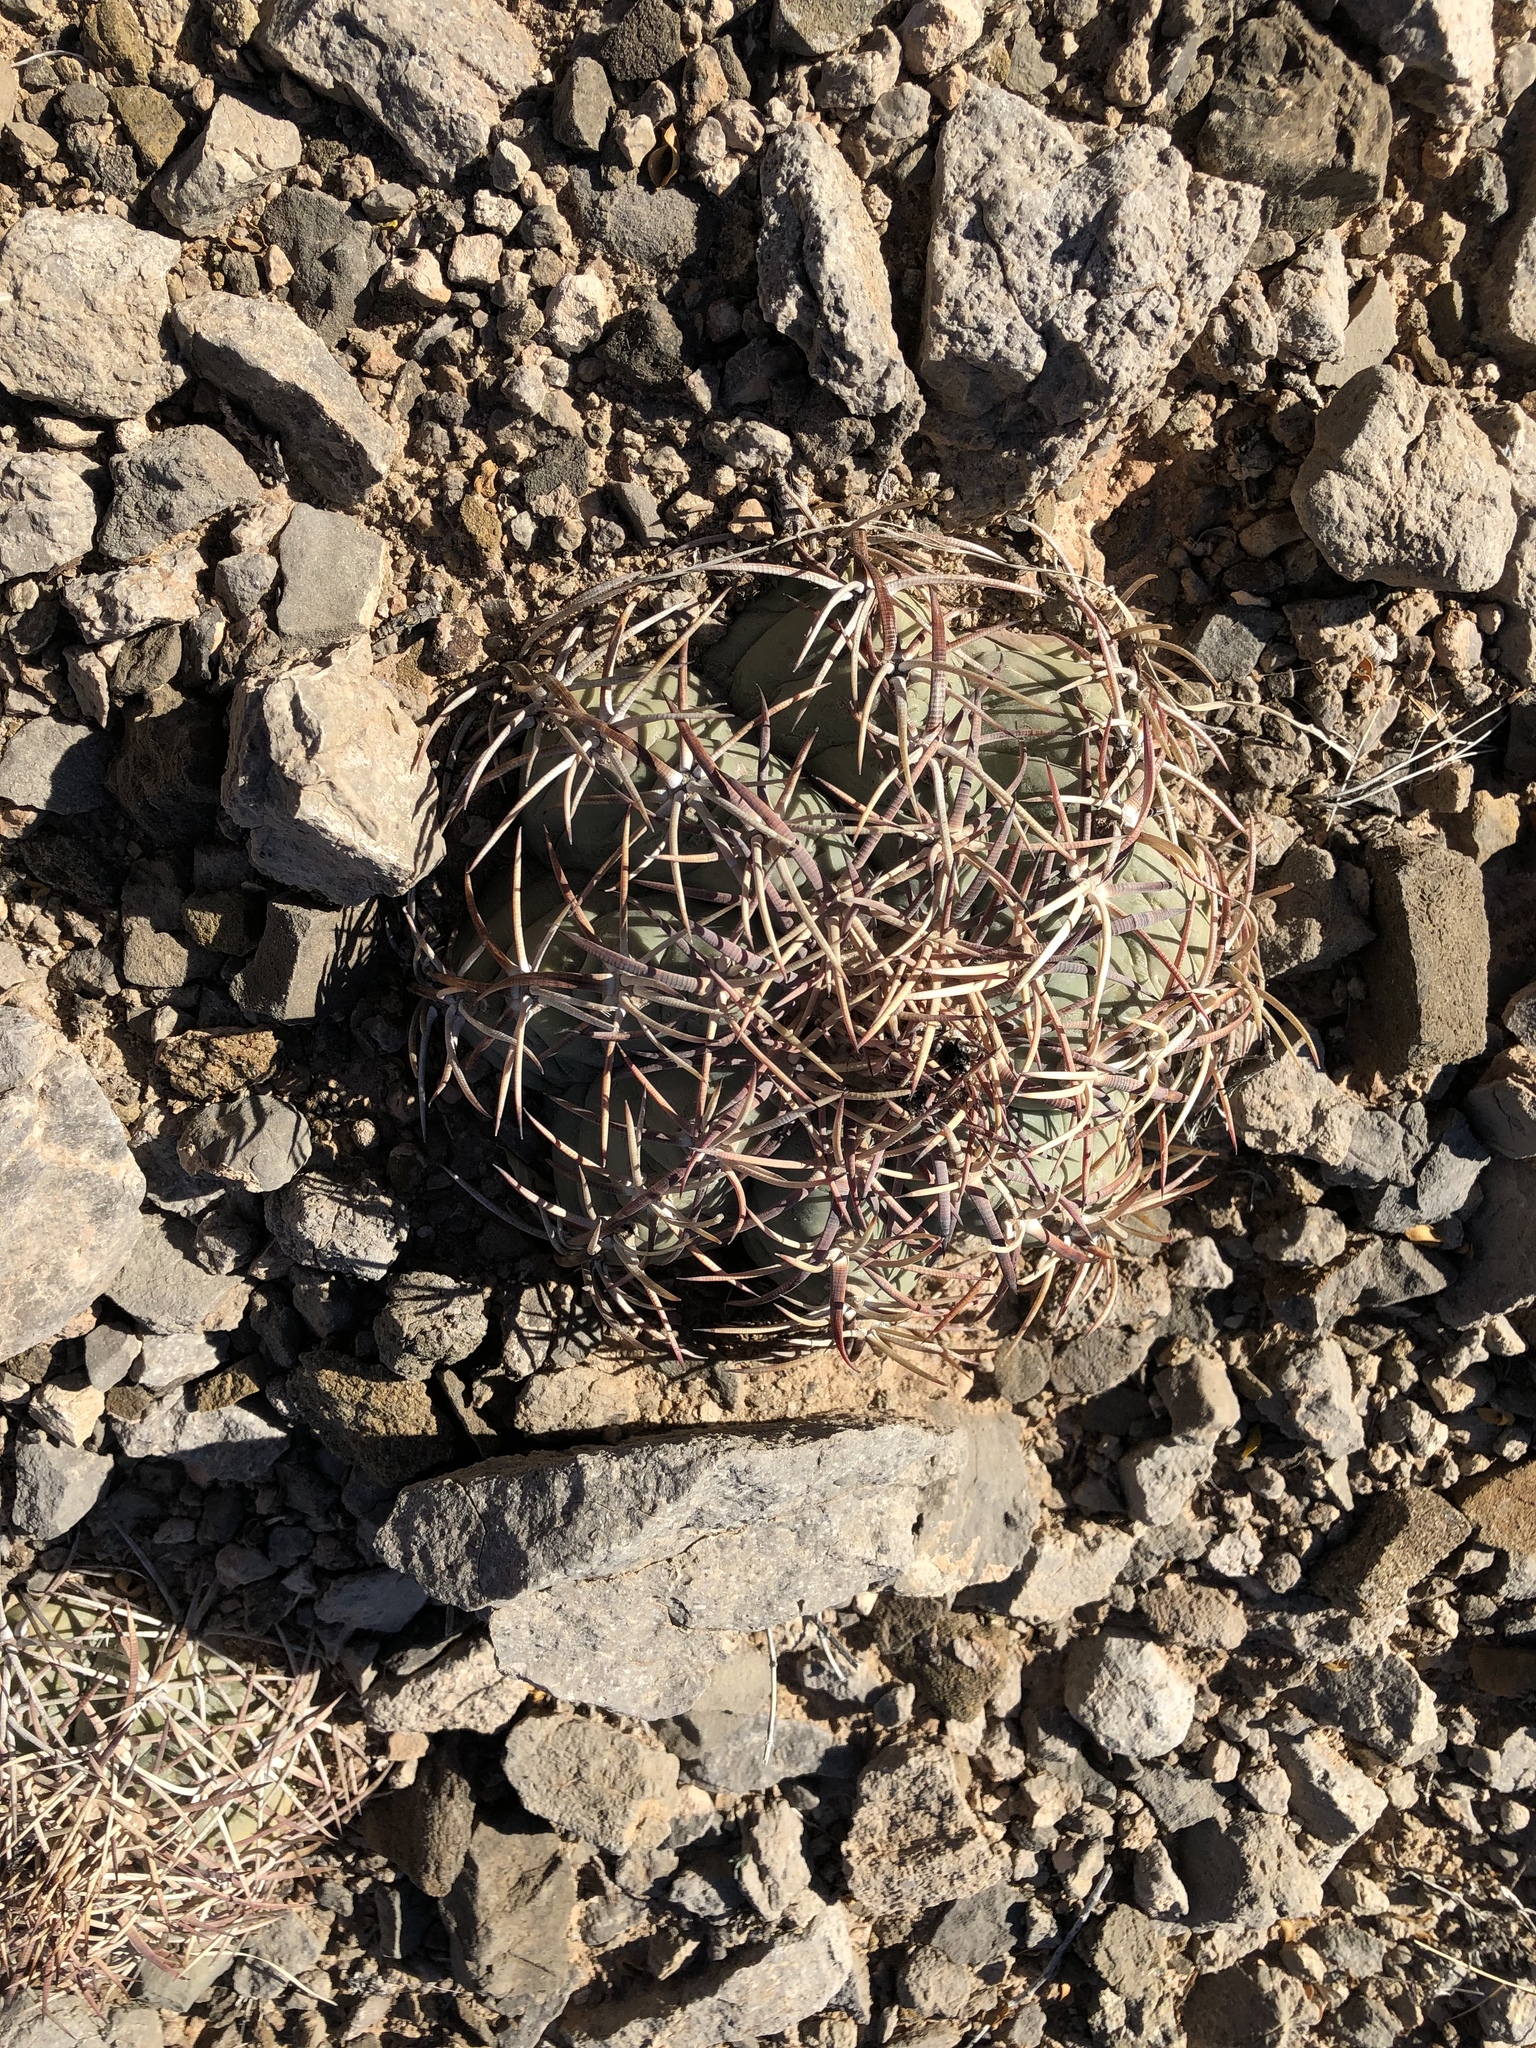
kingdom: Plantae
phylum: Tracheophyta
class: Magnoliopsida
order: Caryophyllales
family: Cactaceae
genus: Echinocactus
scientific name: Echinocactus horizonthalonius
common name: Devilshead
